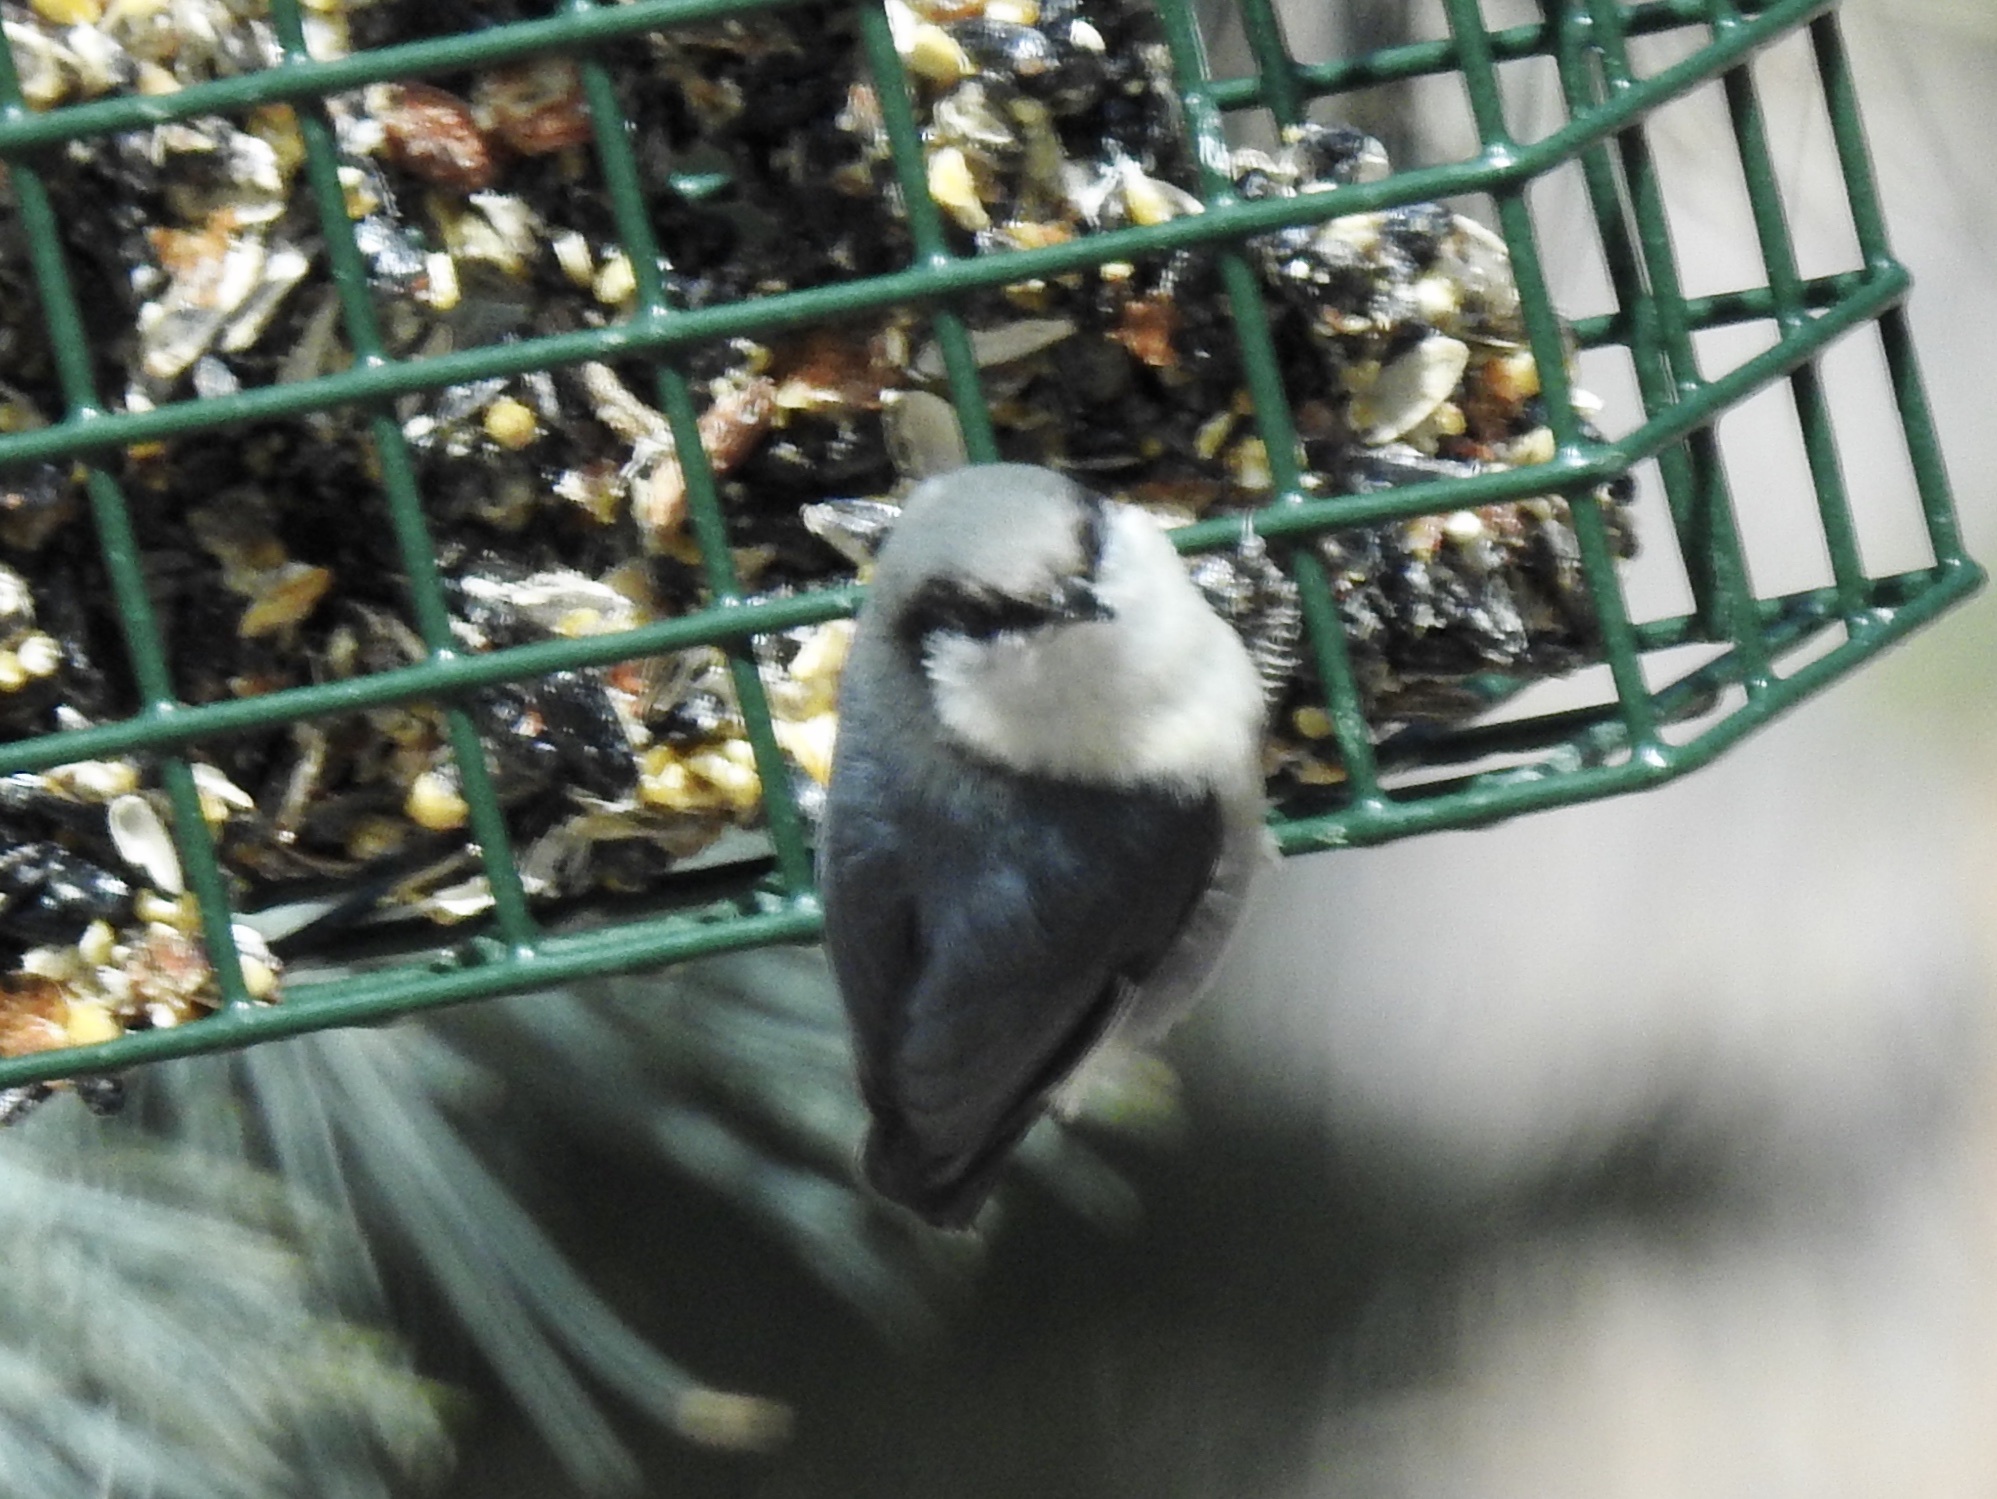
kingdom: Animalia
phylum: Chordata
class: Aves
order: Passeriformes
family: Sittidae
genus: Sitta
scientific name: Sitta pygmaea
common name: Pygmy nuthatch
